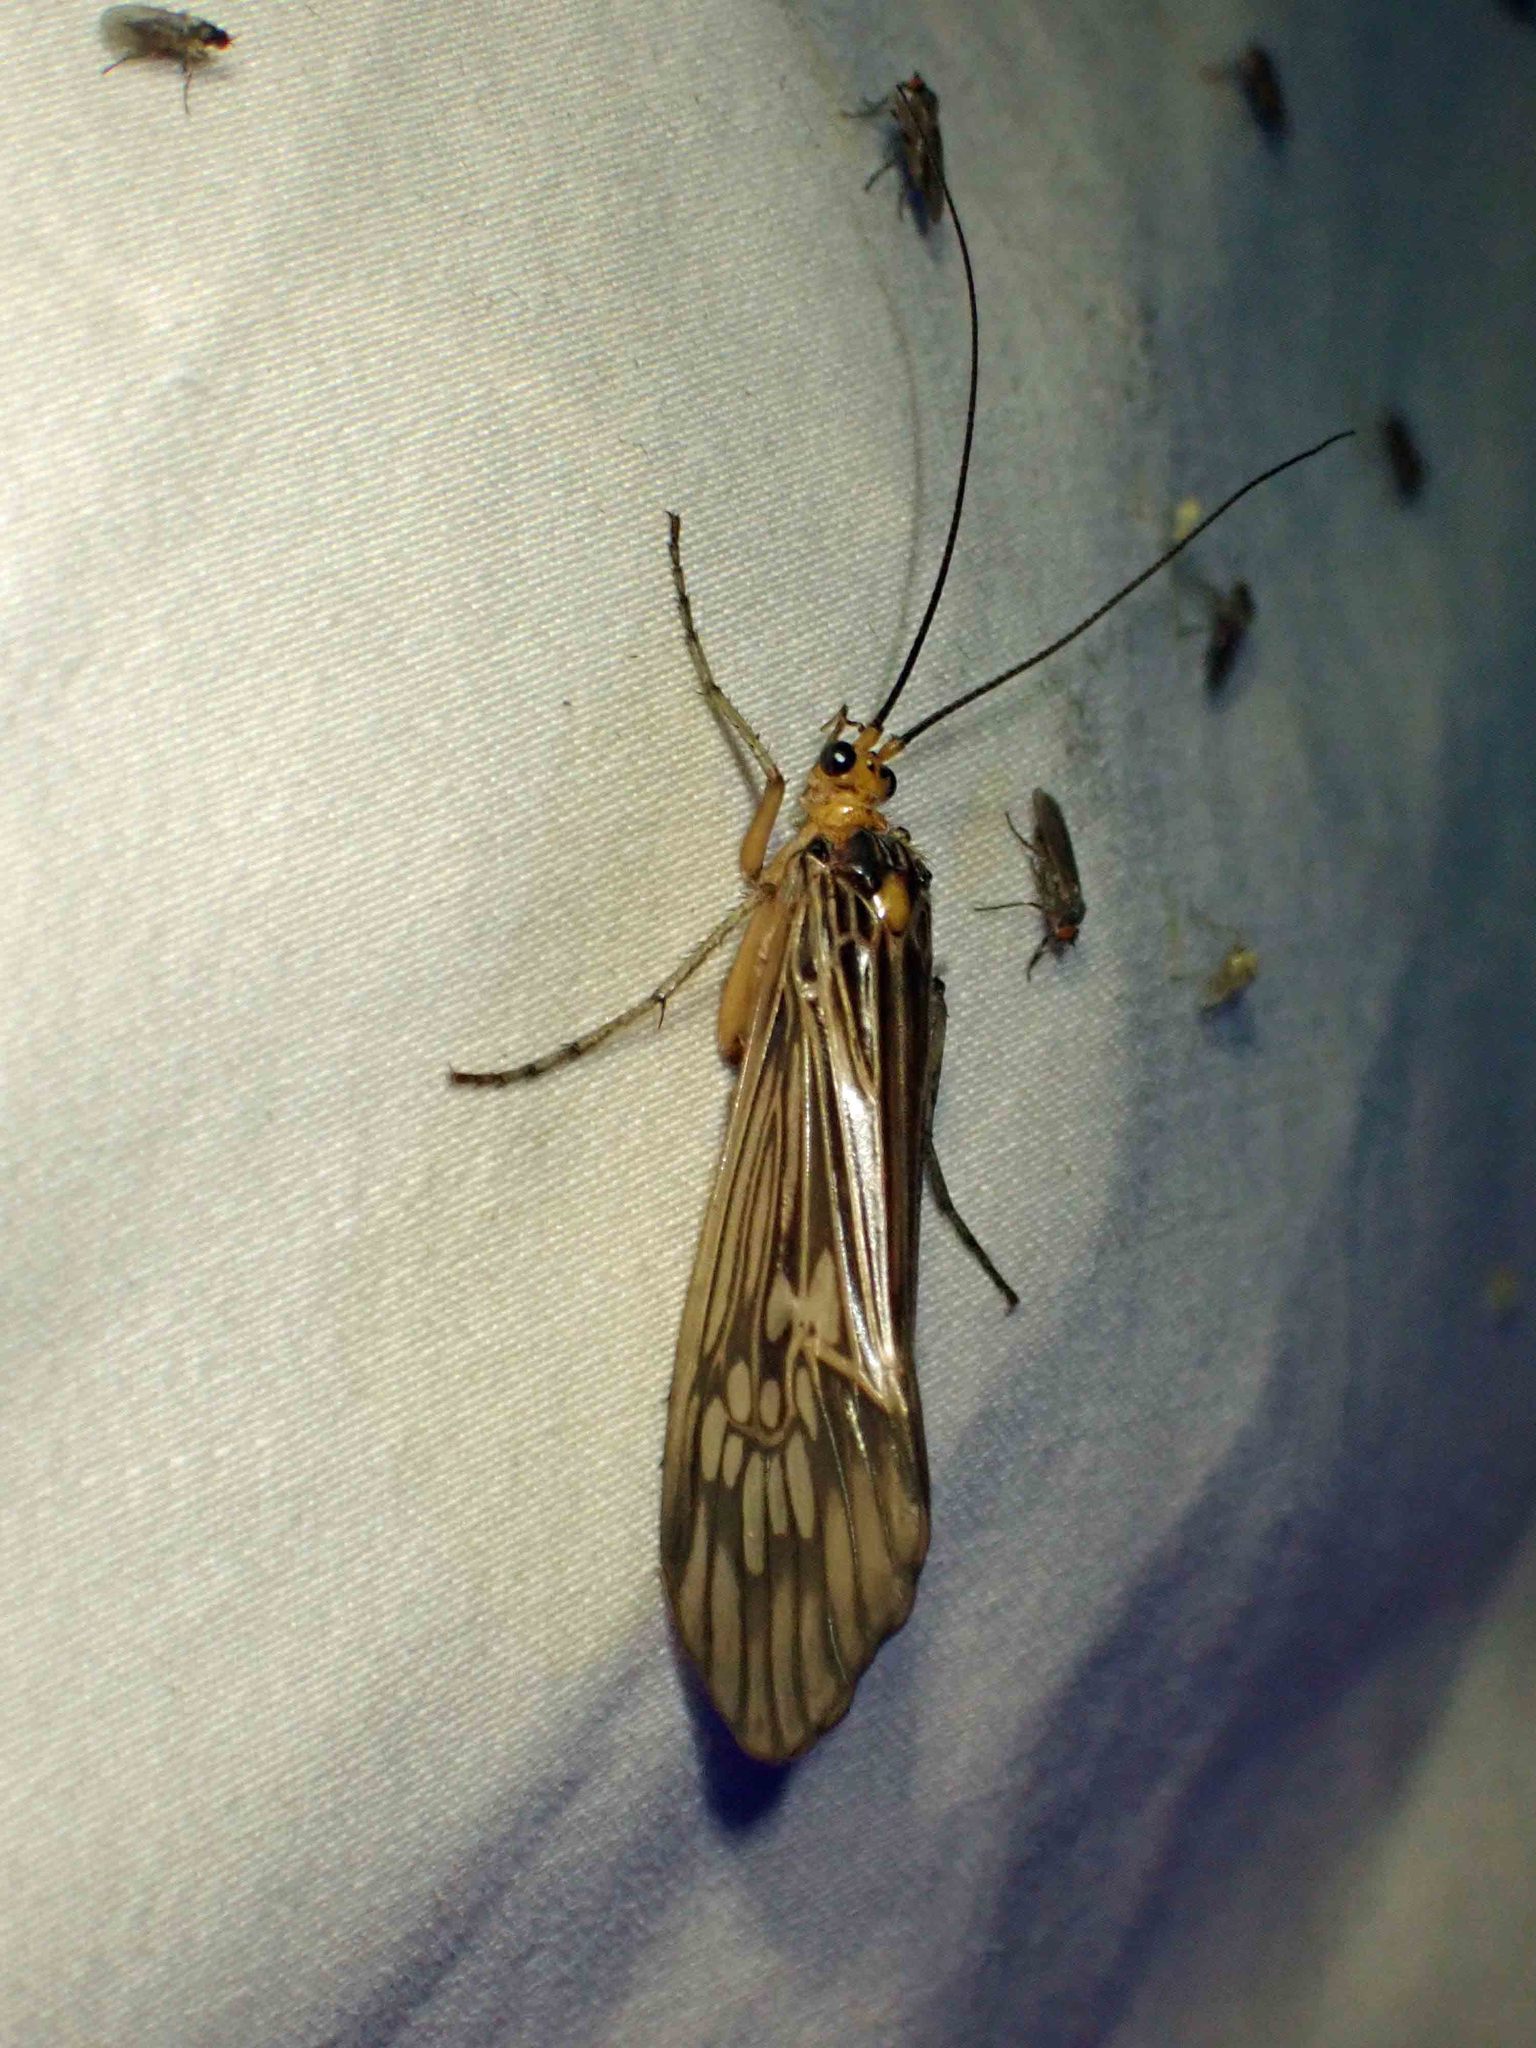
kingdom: Animalia
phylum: Arthropoda
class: Insecta
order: Trichoptera
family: Limnephilidae
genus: Hydatophylax
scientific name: Hydatophylax argus
